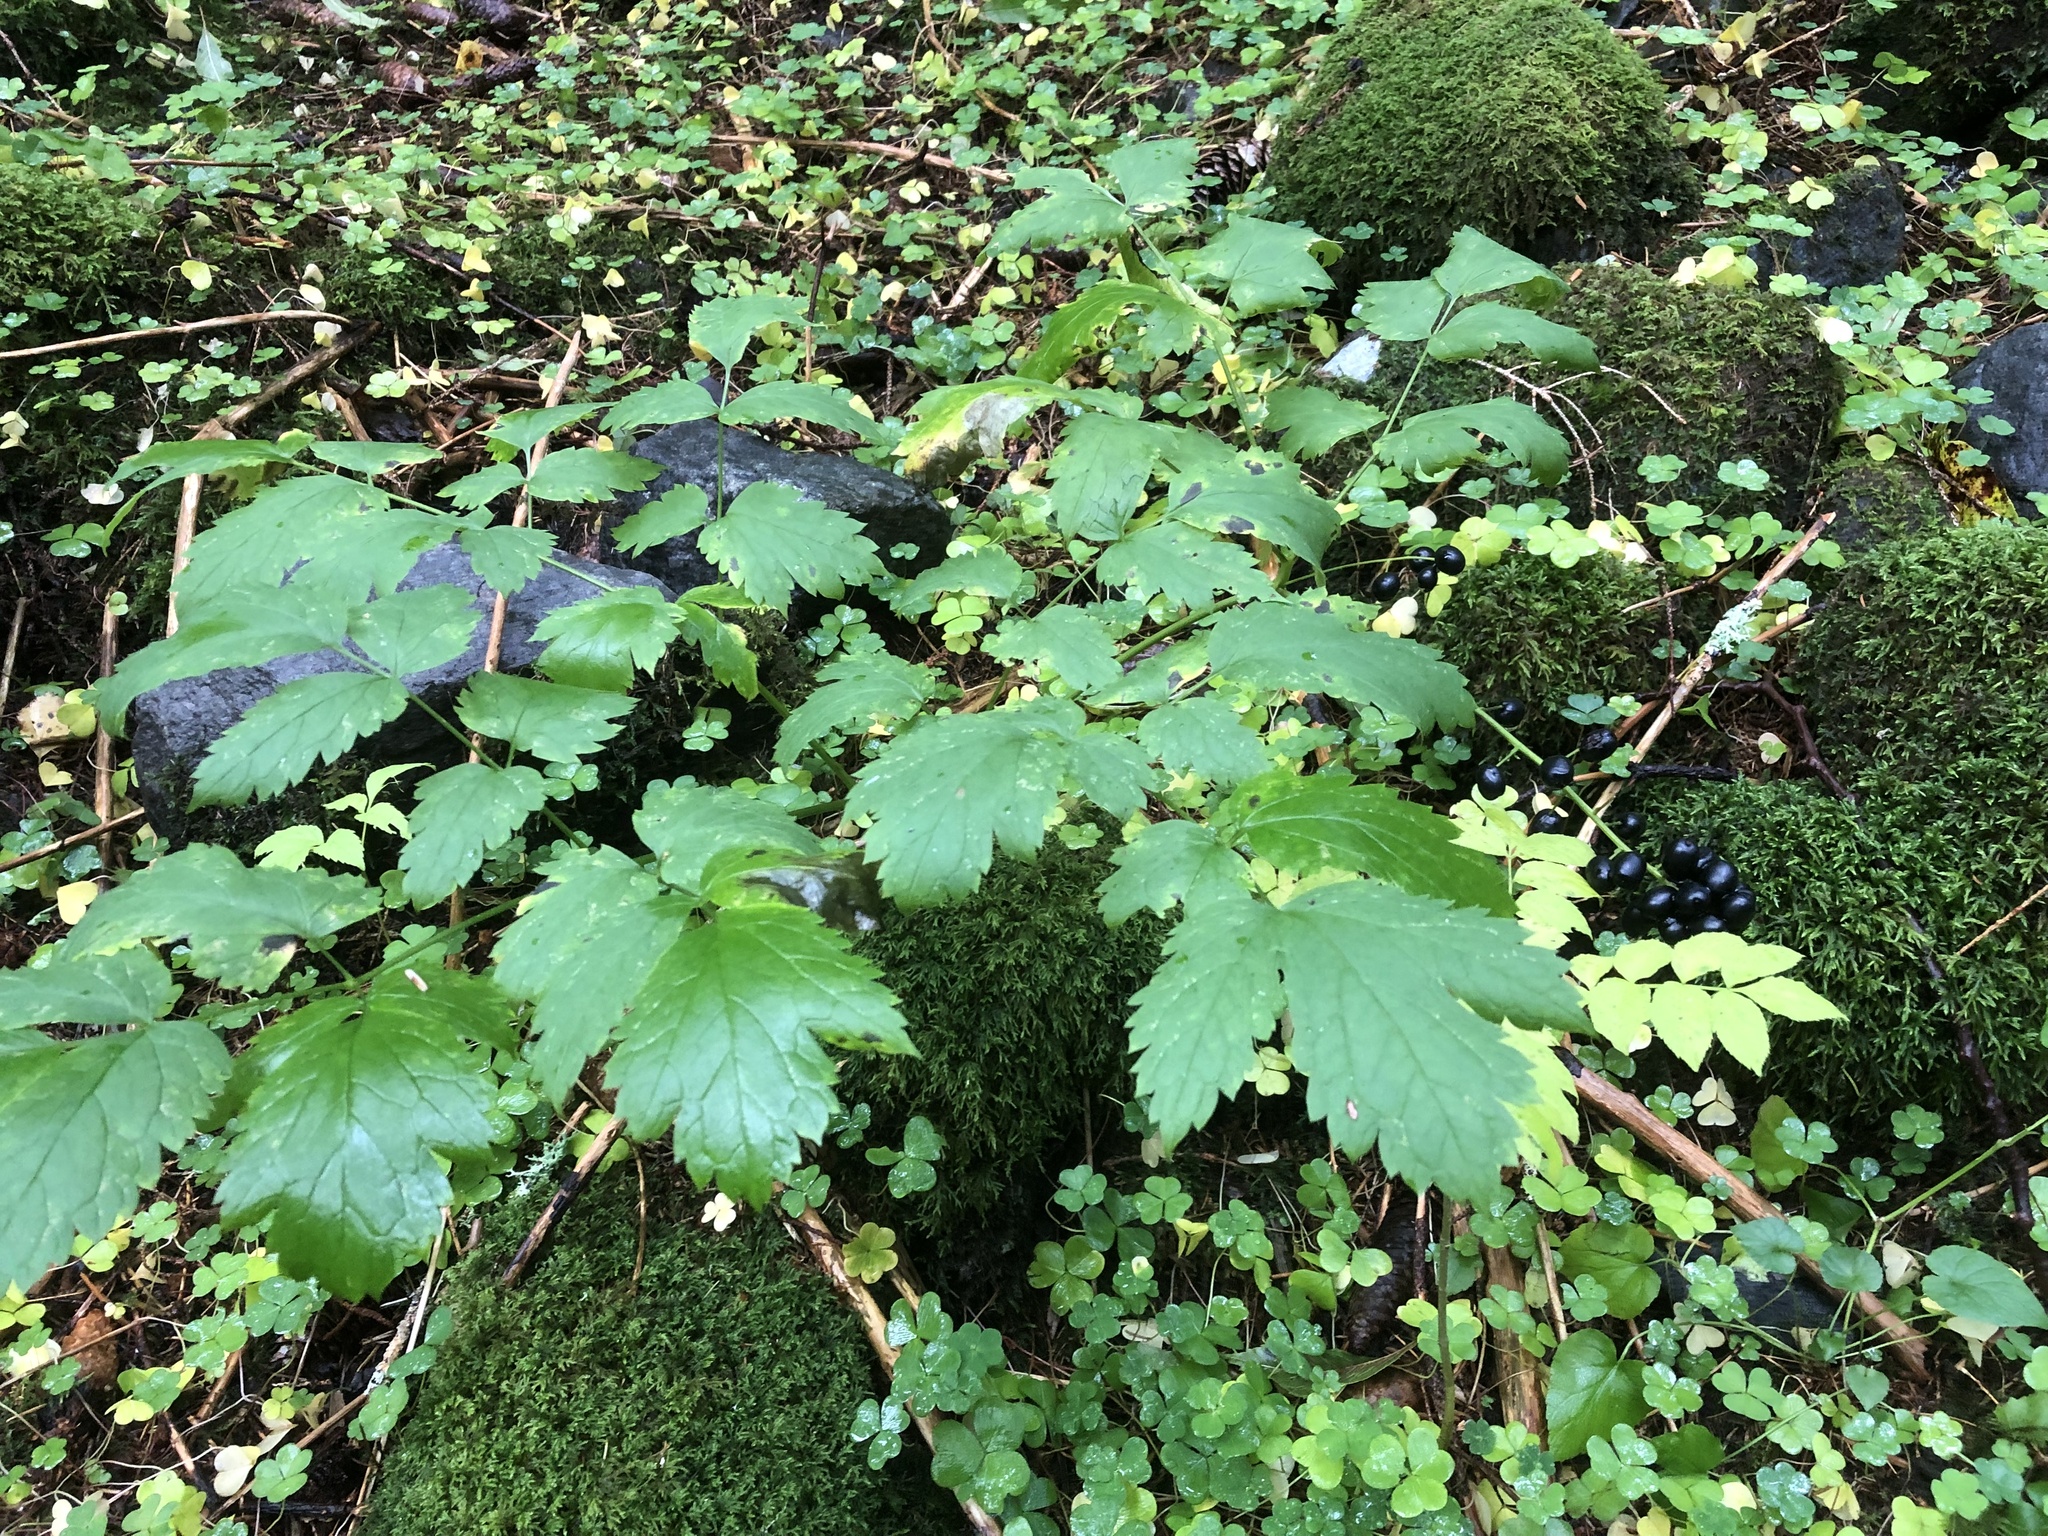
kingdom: Plantae
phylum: Tracheophyta
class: Magnoliopsida
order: Ranunculales
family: Ranunculaceae
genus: Actaea
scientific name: Actaea spicata
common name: Baneberry
